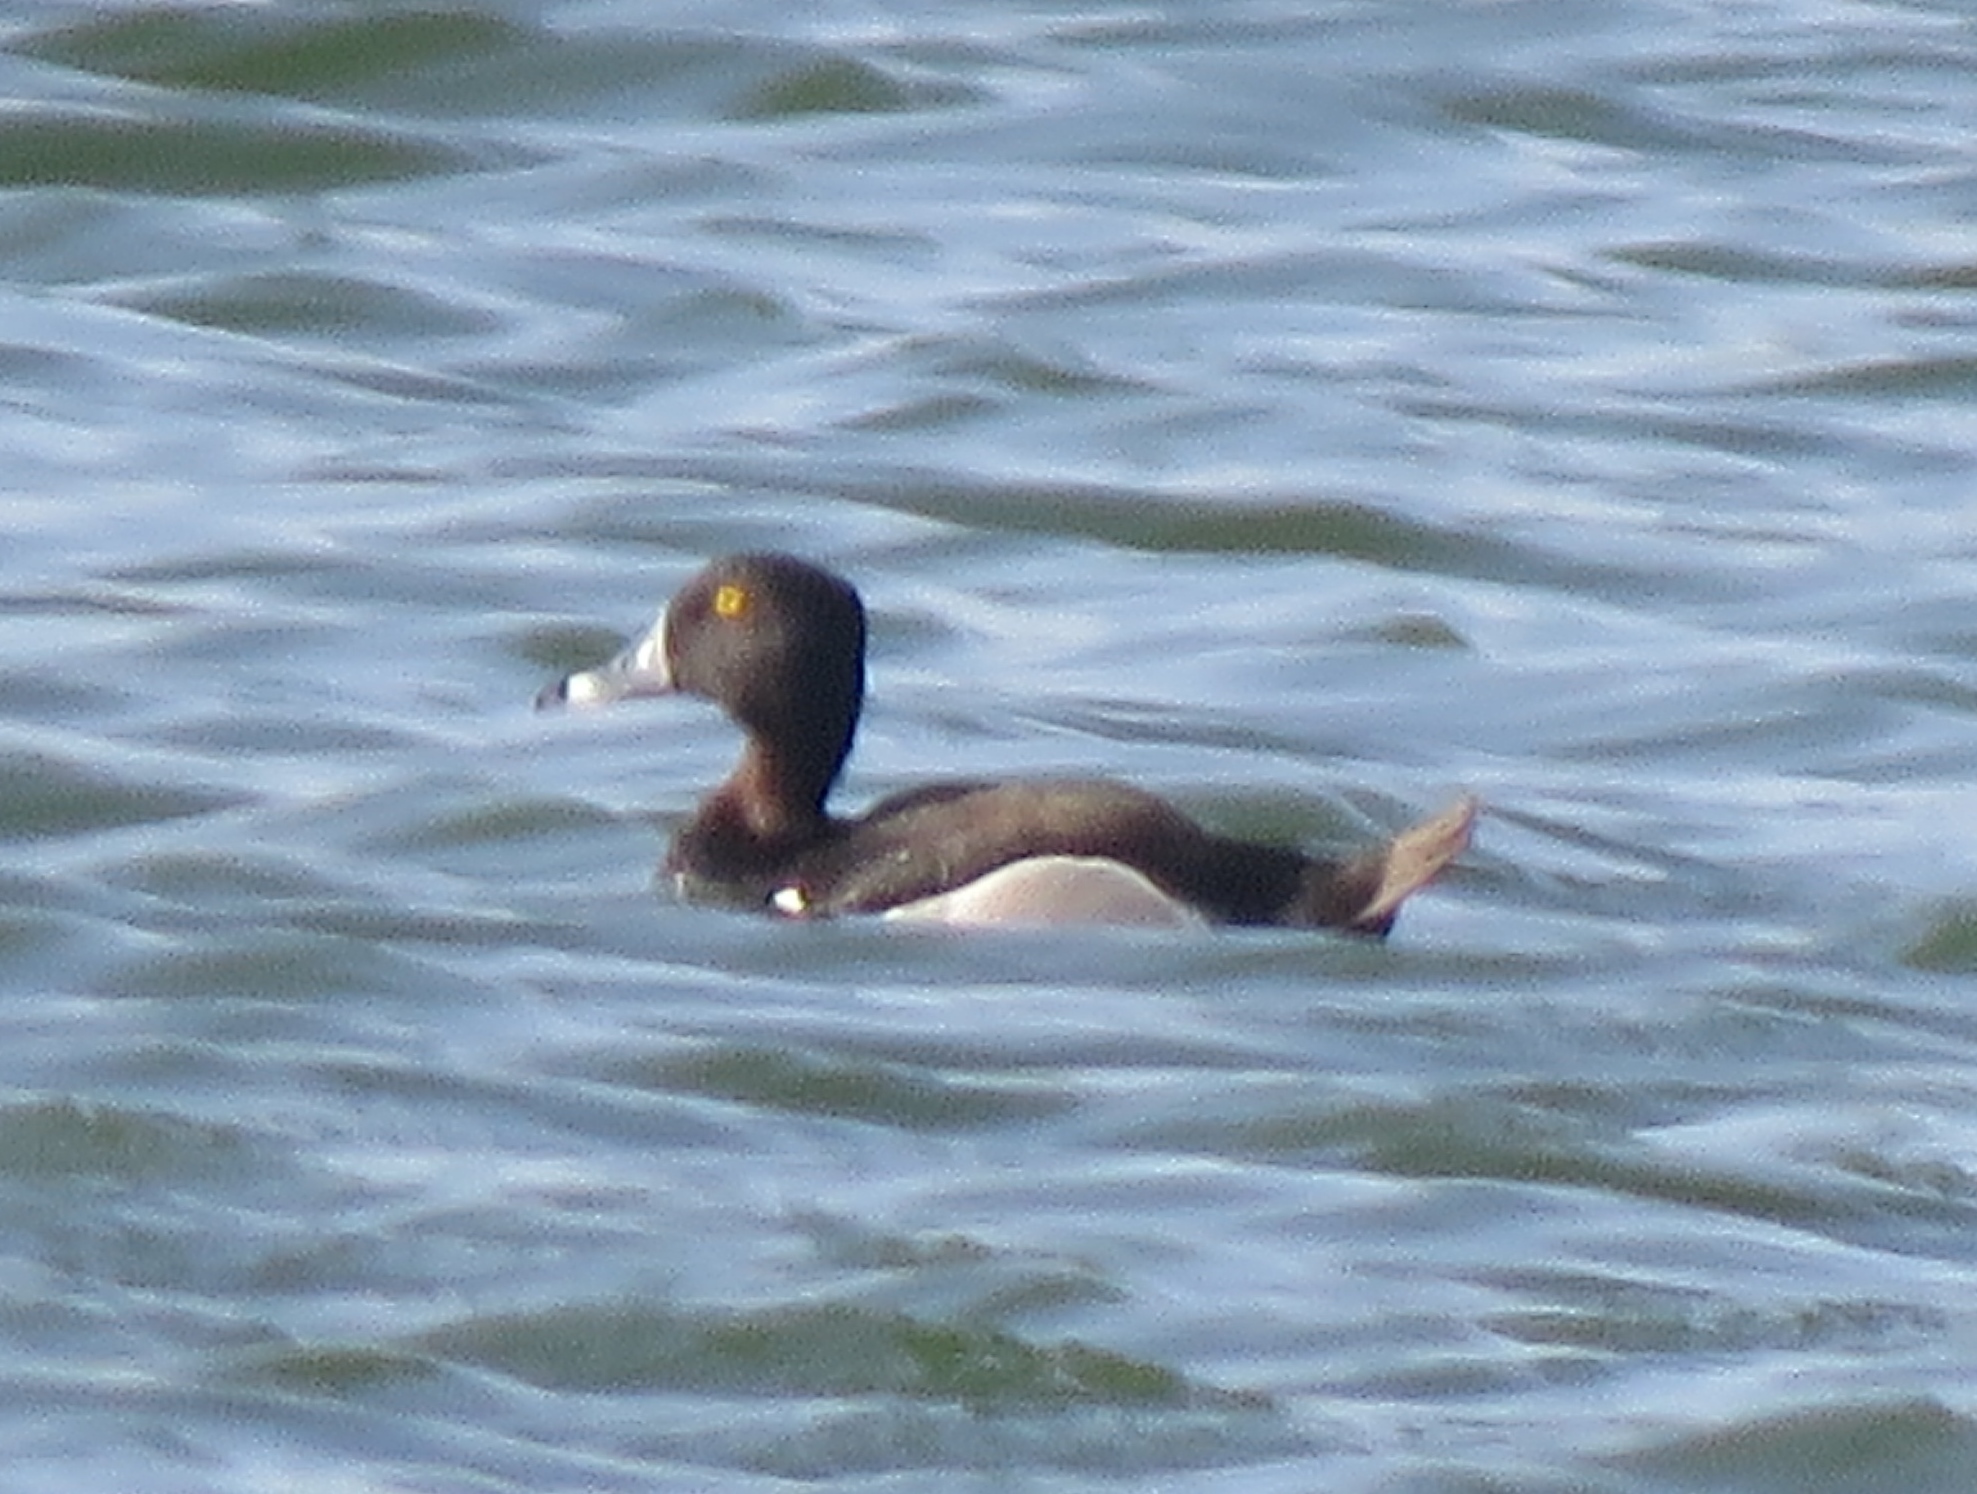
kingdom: Animalia
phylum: Chordata
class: Aves
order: Anseriformes
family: Anatidae
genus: Aythya
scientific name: Aythya collaris
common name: Ring-necked duck
